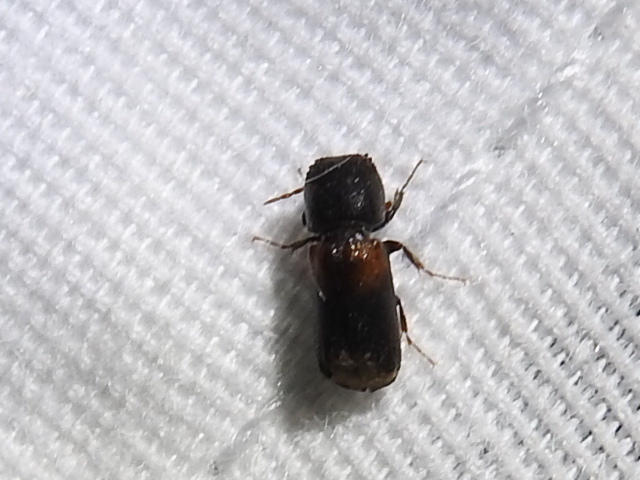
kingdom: Animalia
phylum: Arthropoda
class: Insecta
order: Coleoptera
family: Bostrichidae
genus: Xylobiops
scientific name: Xylobiops basilaris
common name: Red-shouldered bostrichid
